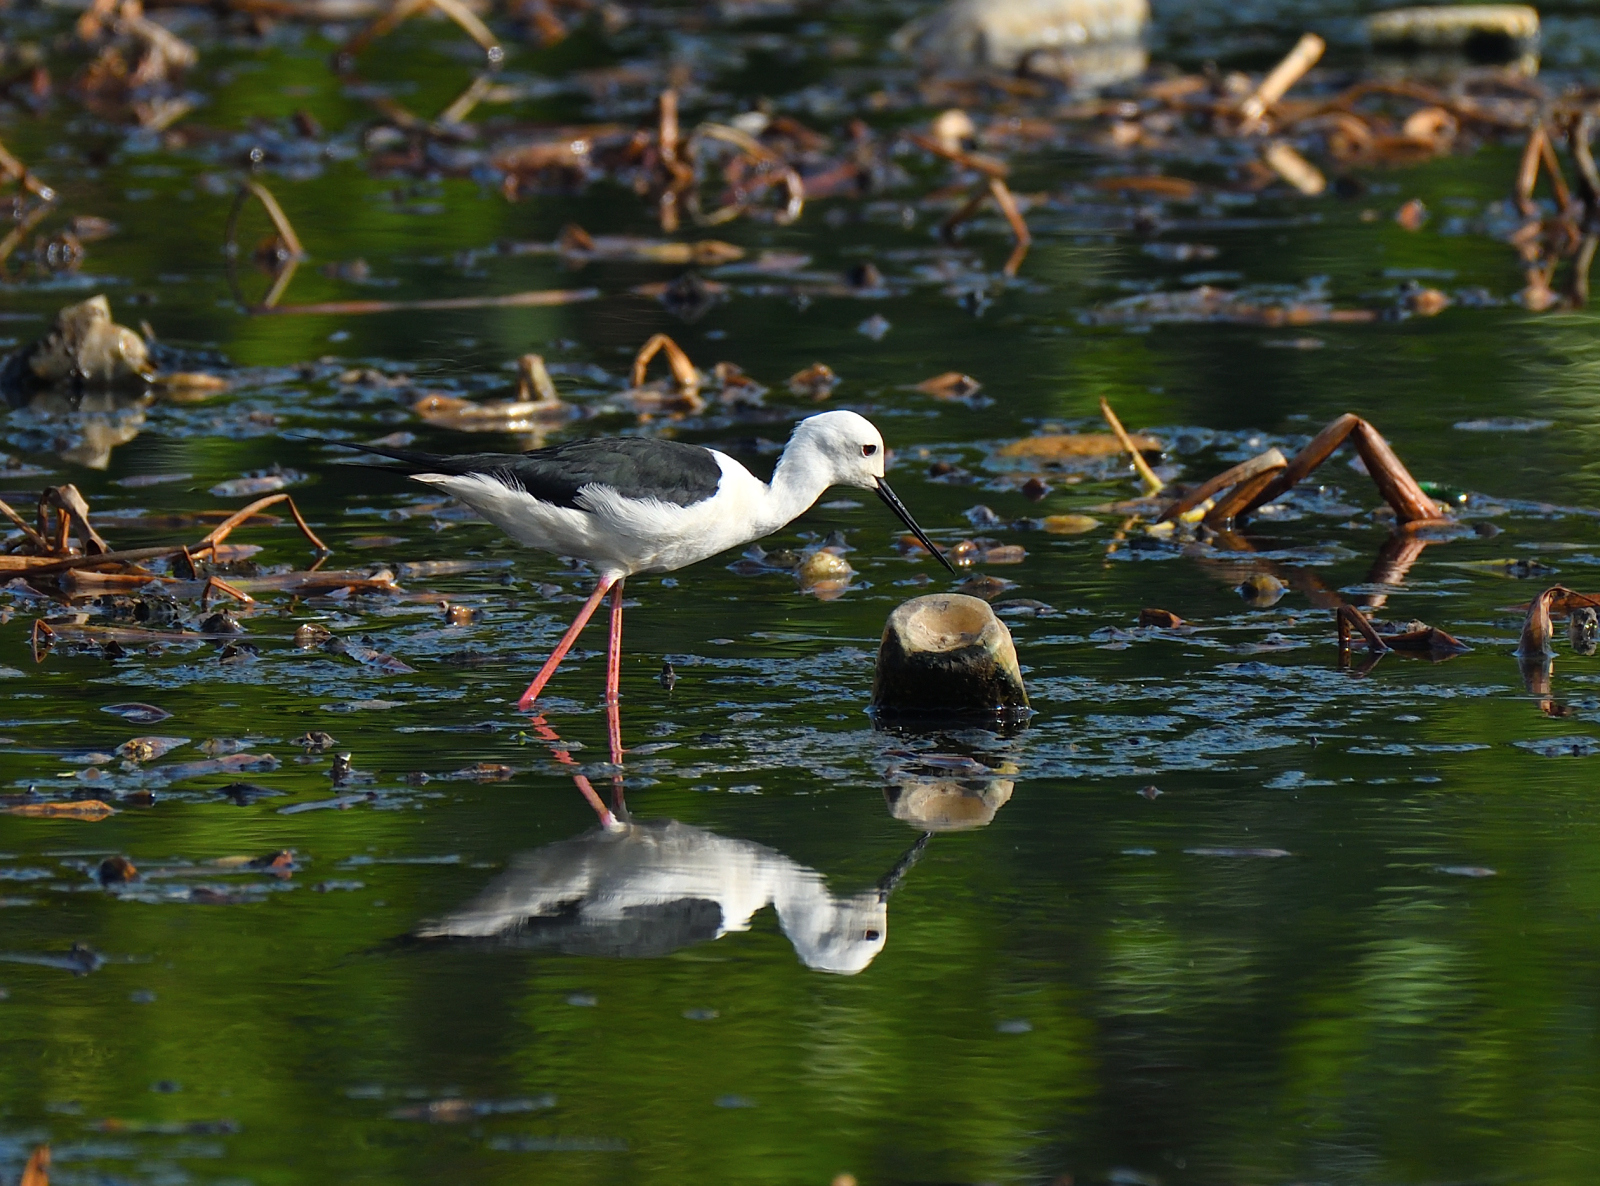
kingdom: Animalia
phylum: Chordata
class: Aves
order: Charadriiformes
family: Recurvirostridae
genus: Himantopus
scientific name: Himantopus himantopus
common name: Black-winged stilt
